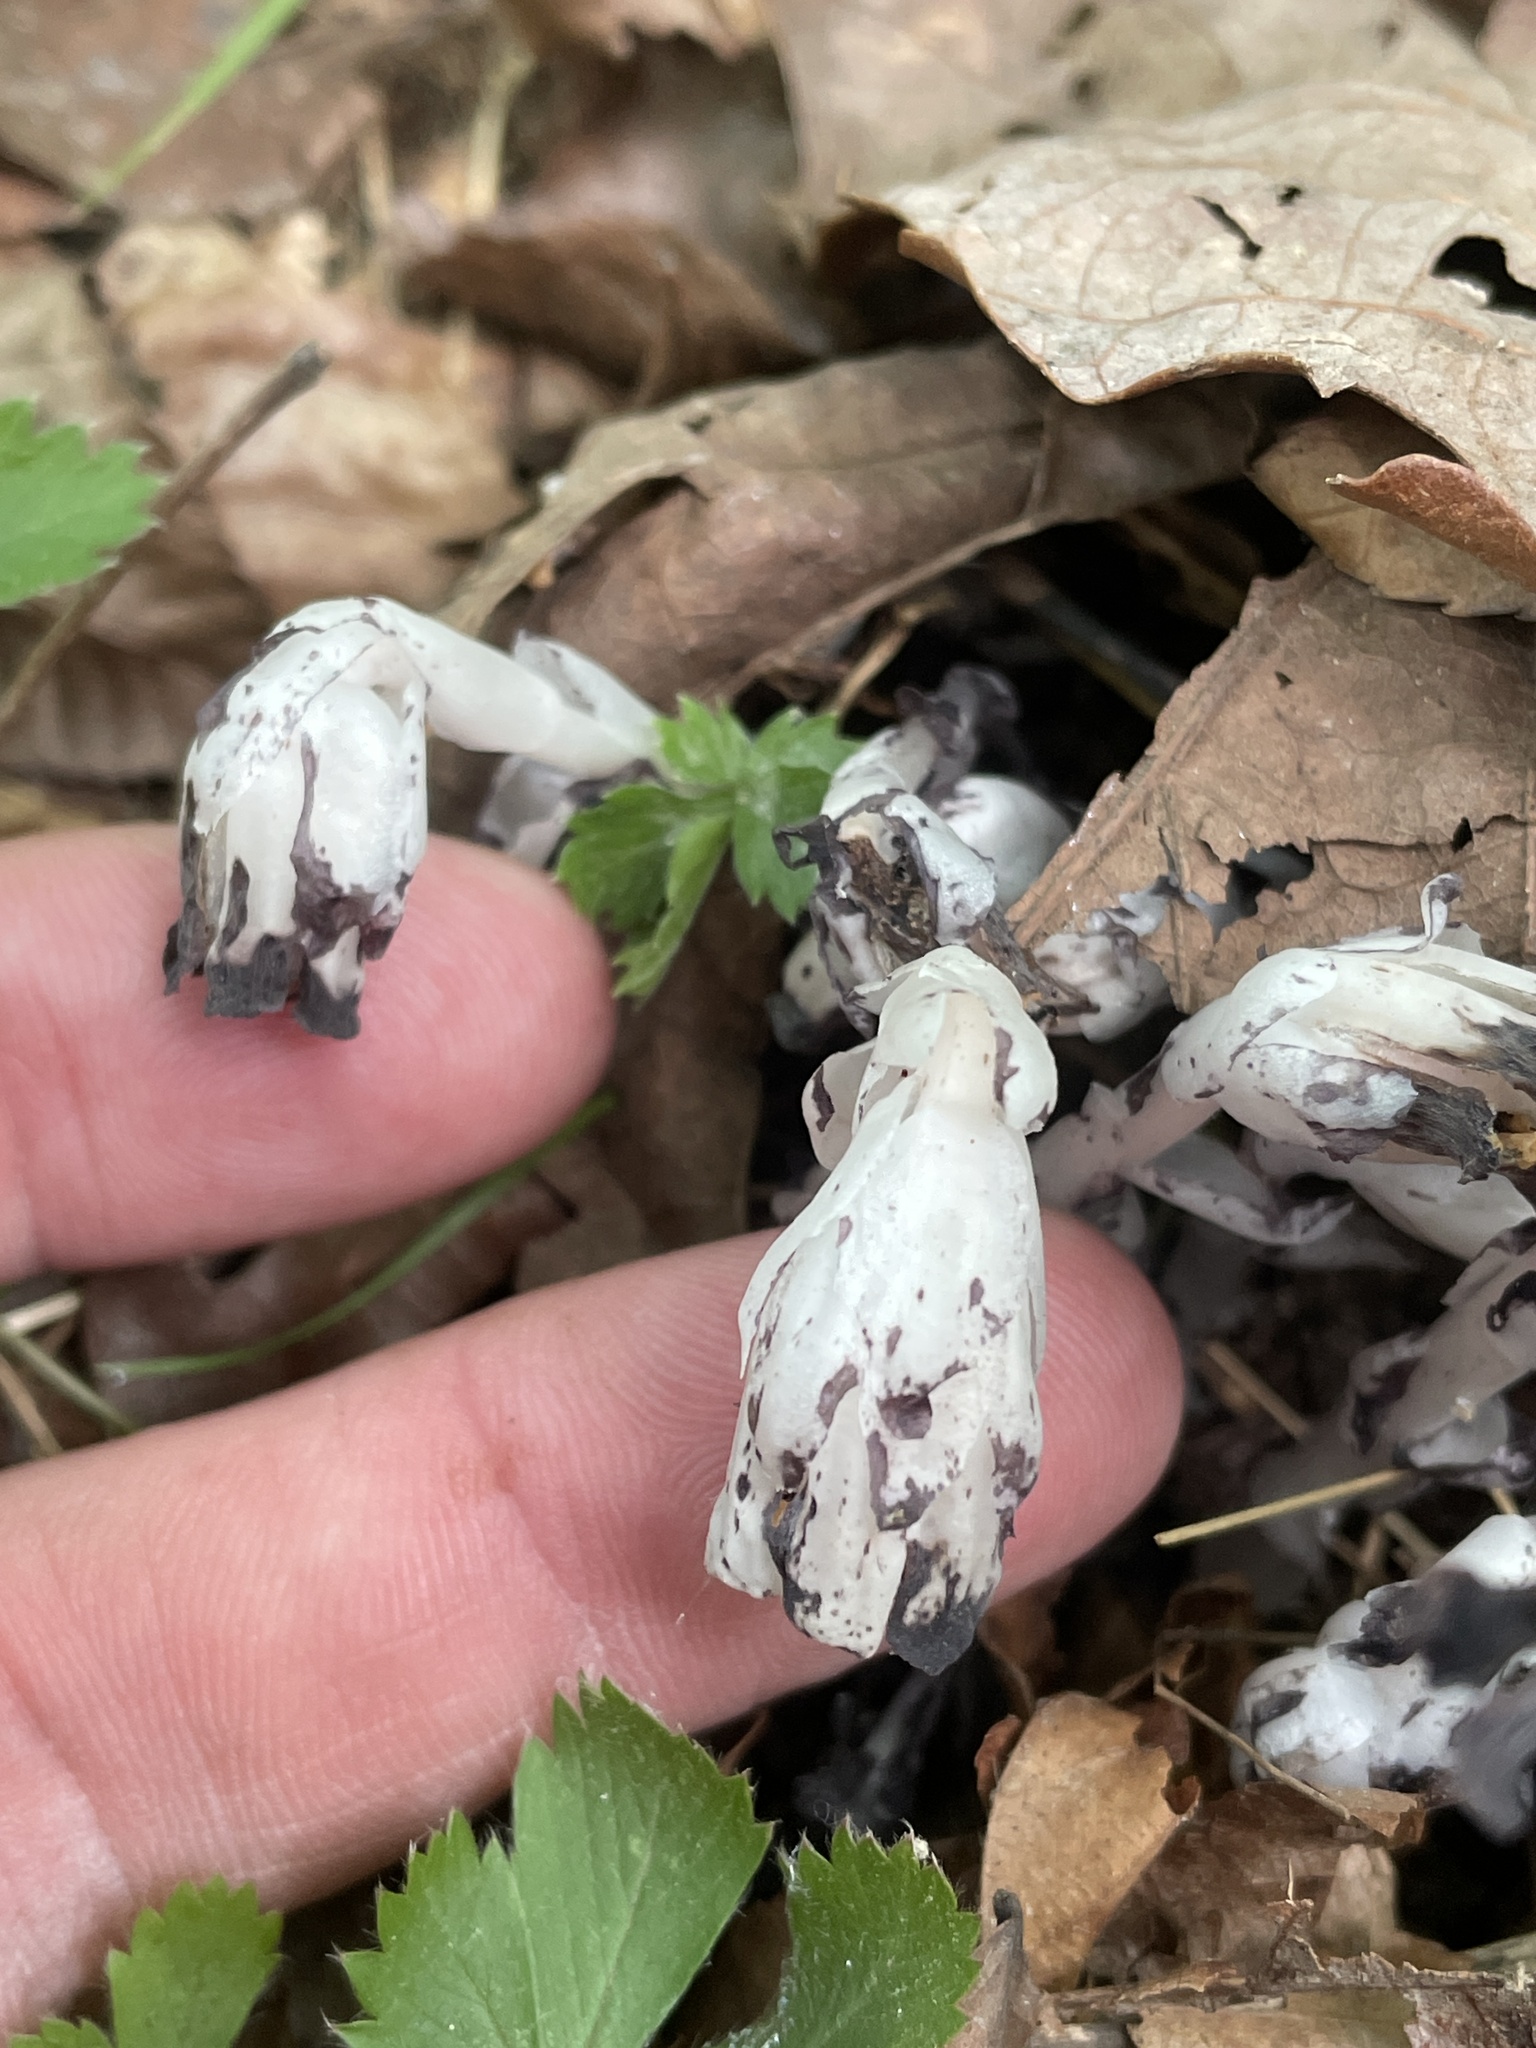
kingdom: Plantae
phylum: Tracheophyta
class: Magnoliopsida
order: Ericales
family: Ericaceae
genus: Monotropa
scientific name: Monotropa uniflora
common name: Convulsion root
